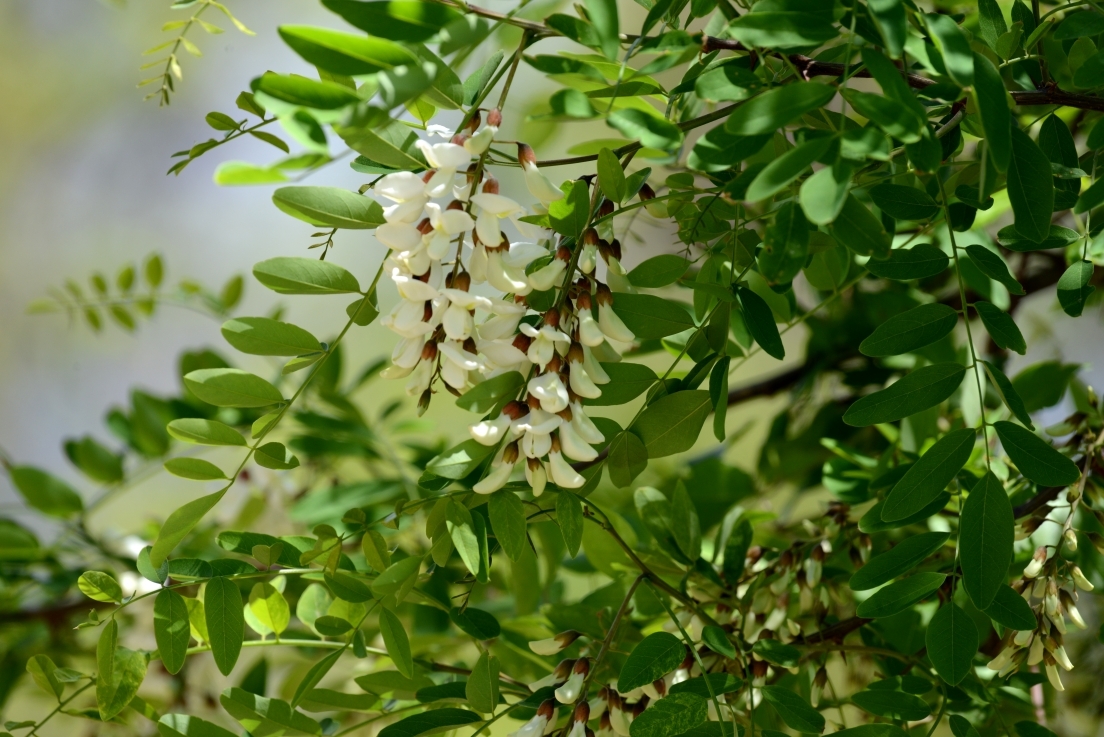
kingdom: Plantae
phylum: Tracheophyta
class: Magnoliopsida
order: Fabales
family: Fabaceae
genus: Robinia
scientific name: Robinia pseudoacacia
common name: Black locust
